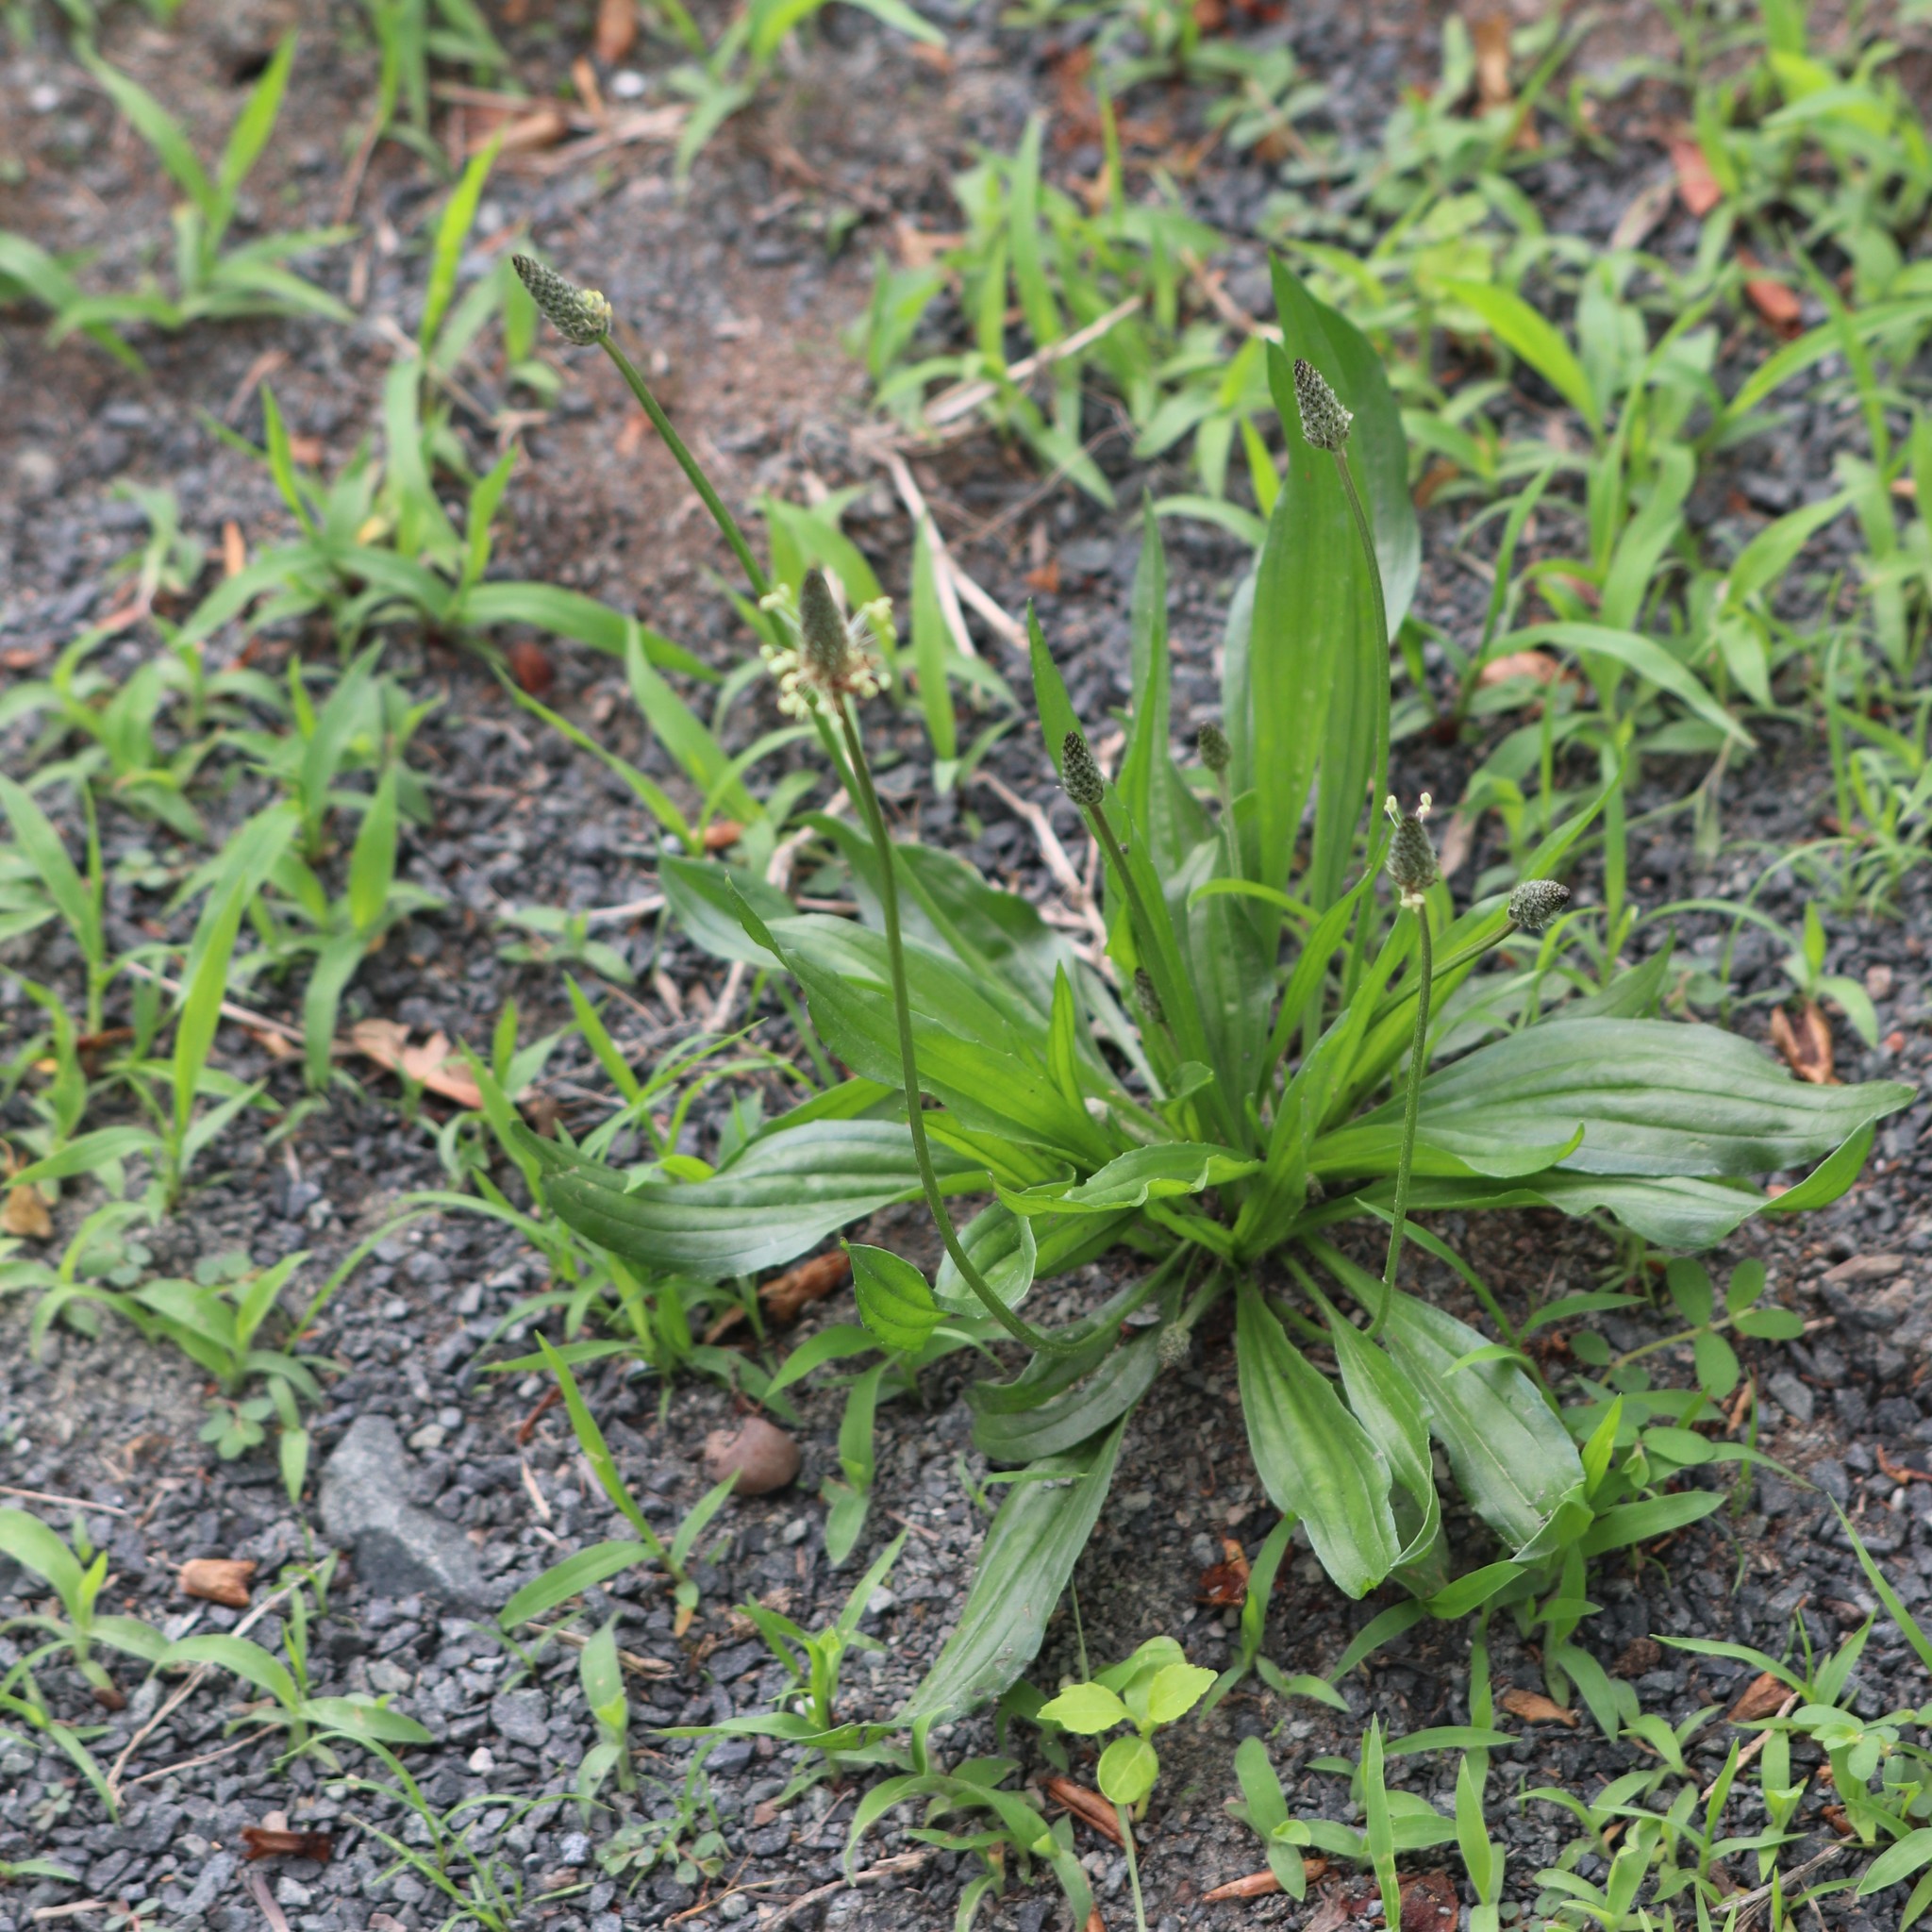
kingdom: Plantae
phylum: Tracheophyta
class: Magnoliopsida
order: Lamiales
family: Plantaginaceae
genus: Plantago
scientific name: Plantago lanceolata
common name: Ribwort plantain
